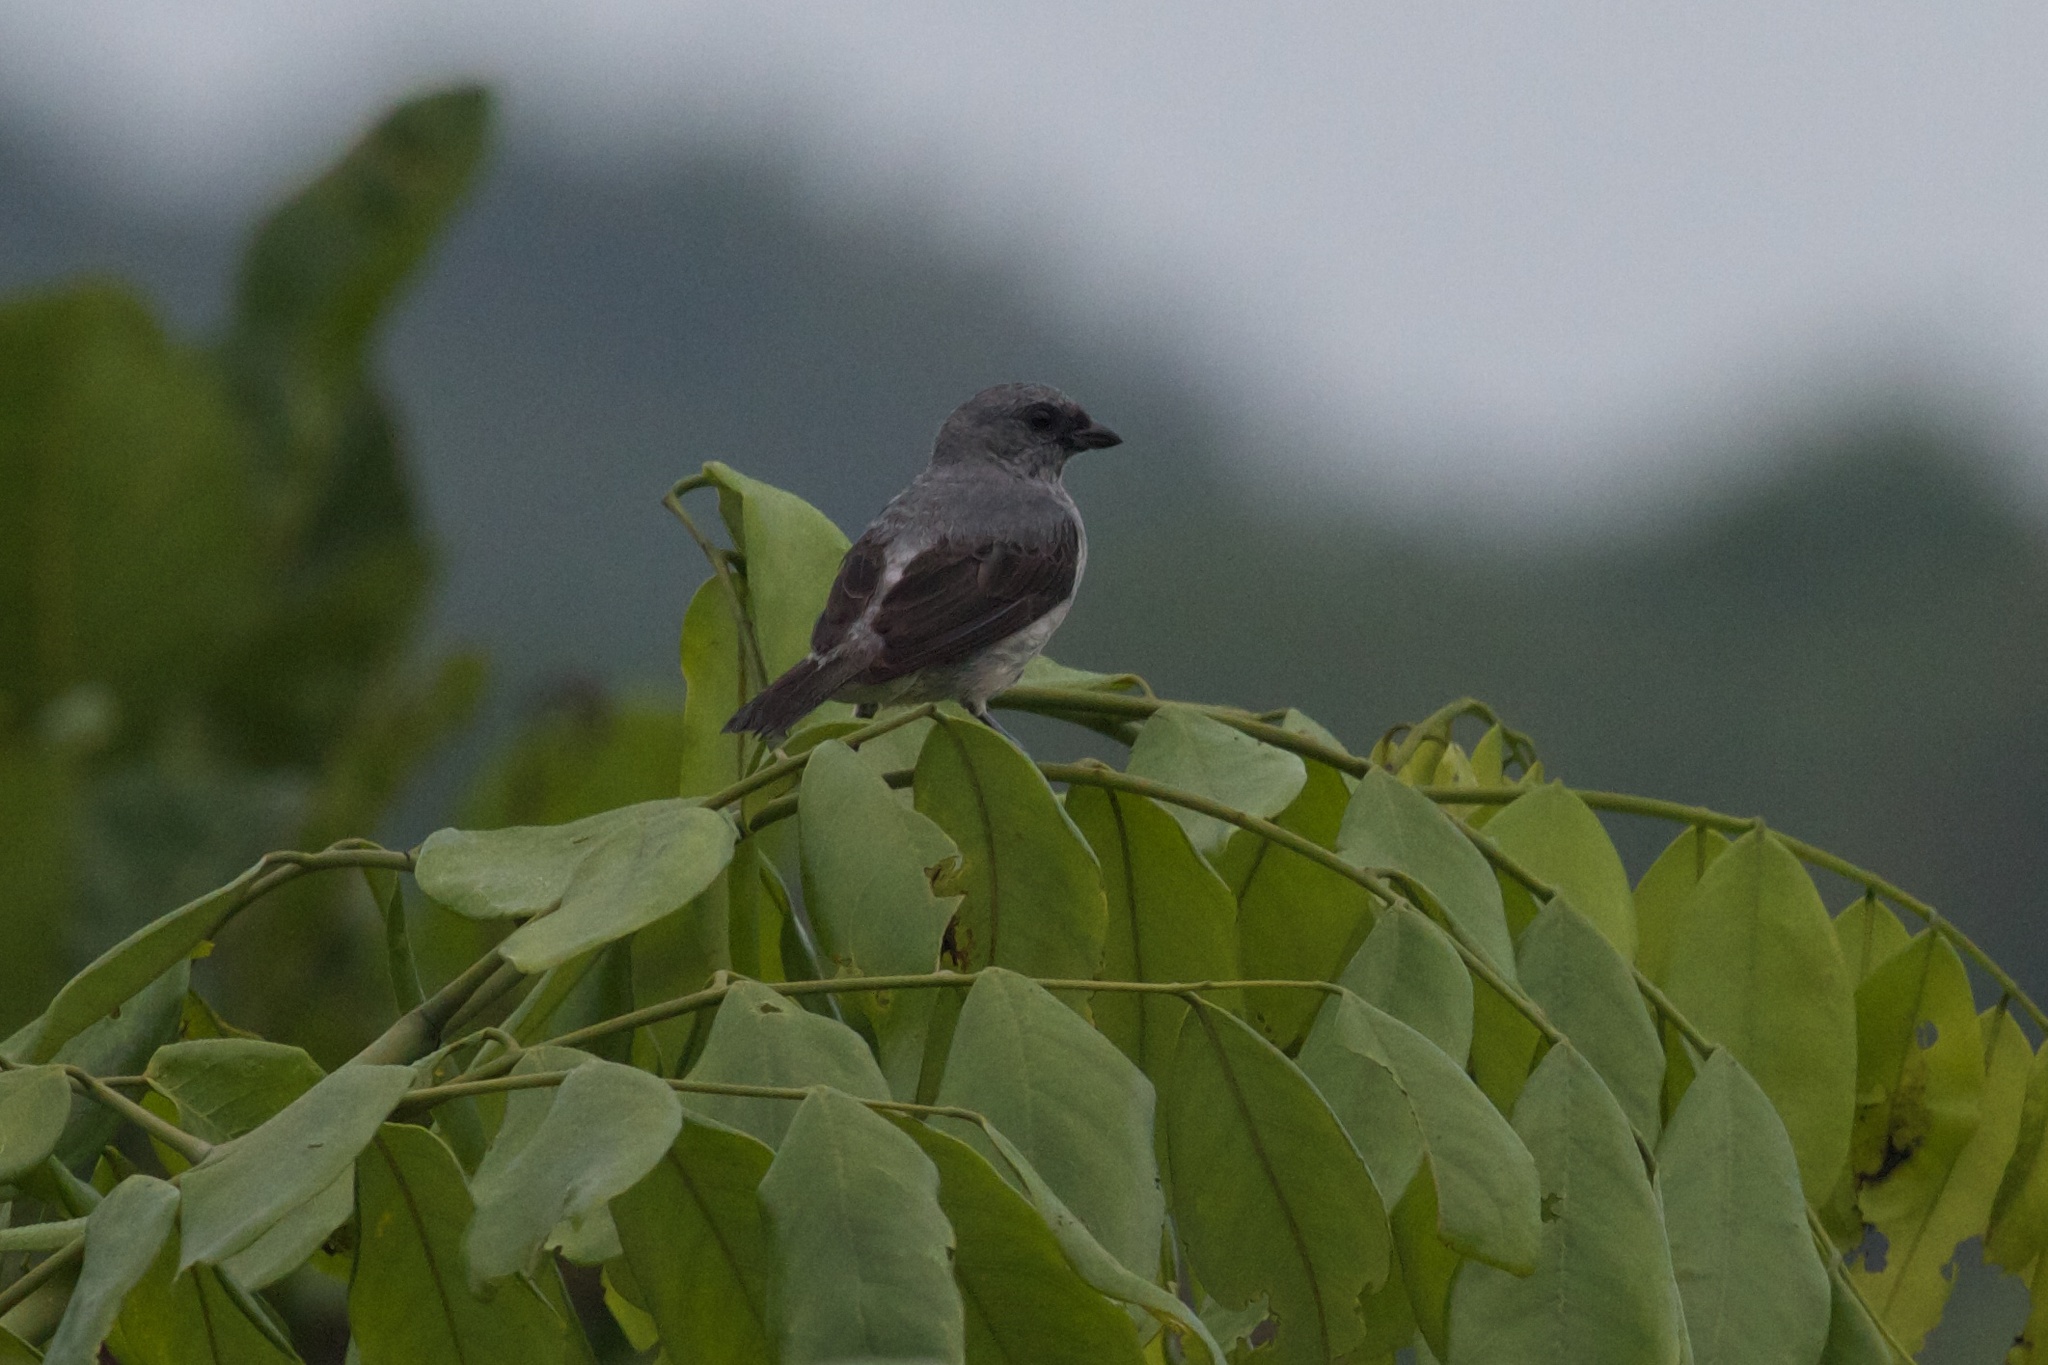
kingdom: Animalia
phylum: Chordata
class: Aves
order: Passeriformes
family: Thraupidae
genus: Tangara
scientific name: Tangara inornata
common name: Plain-colored tanager
